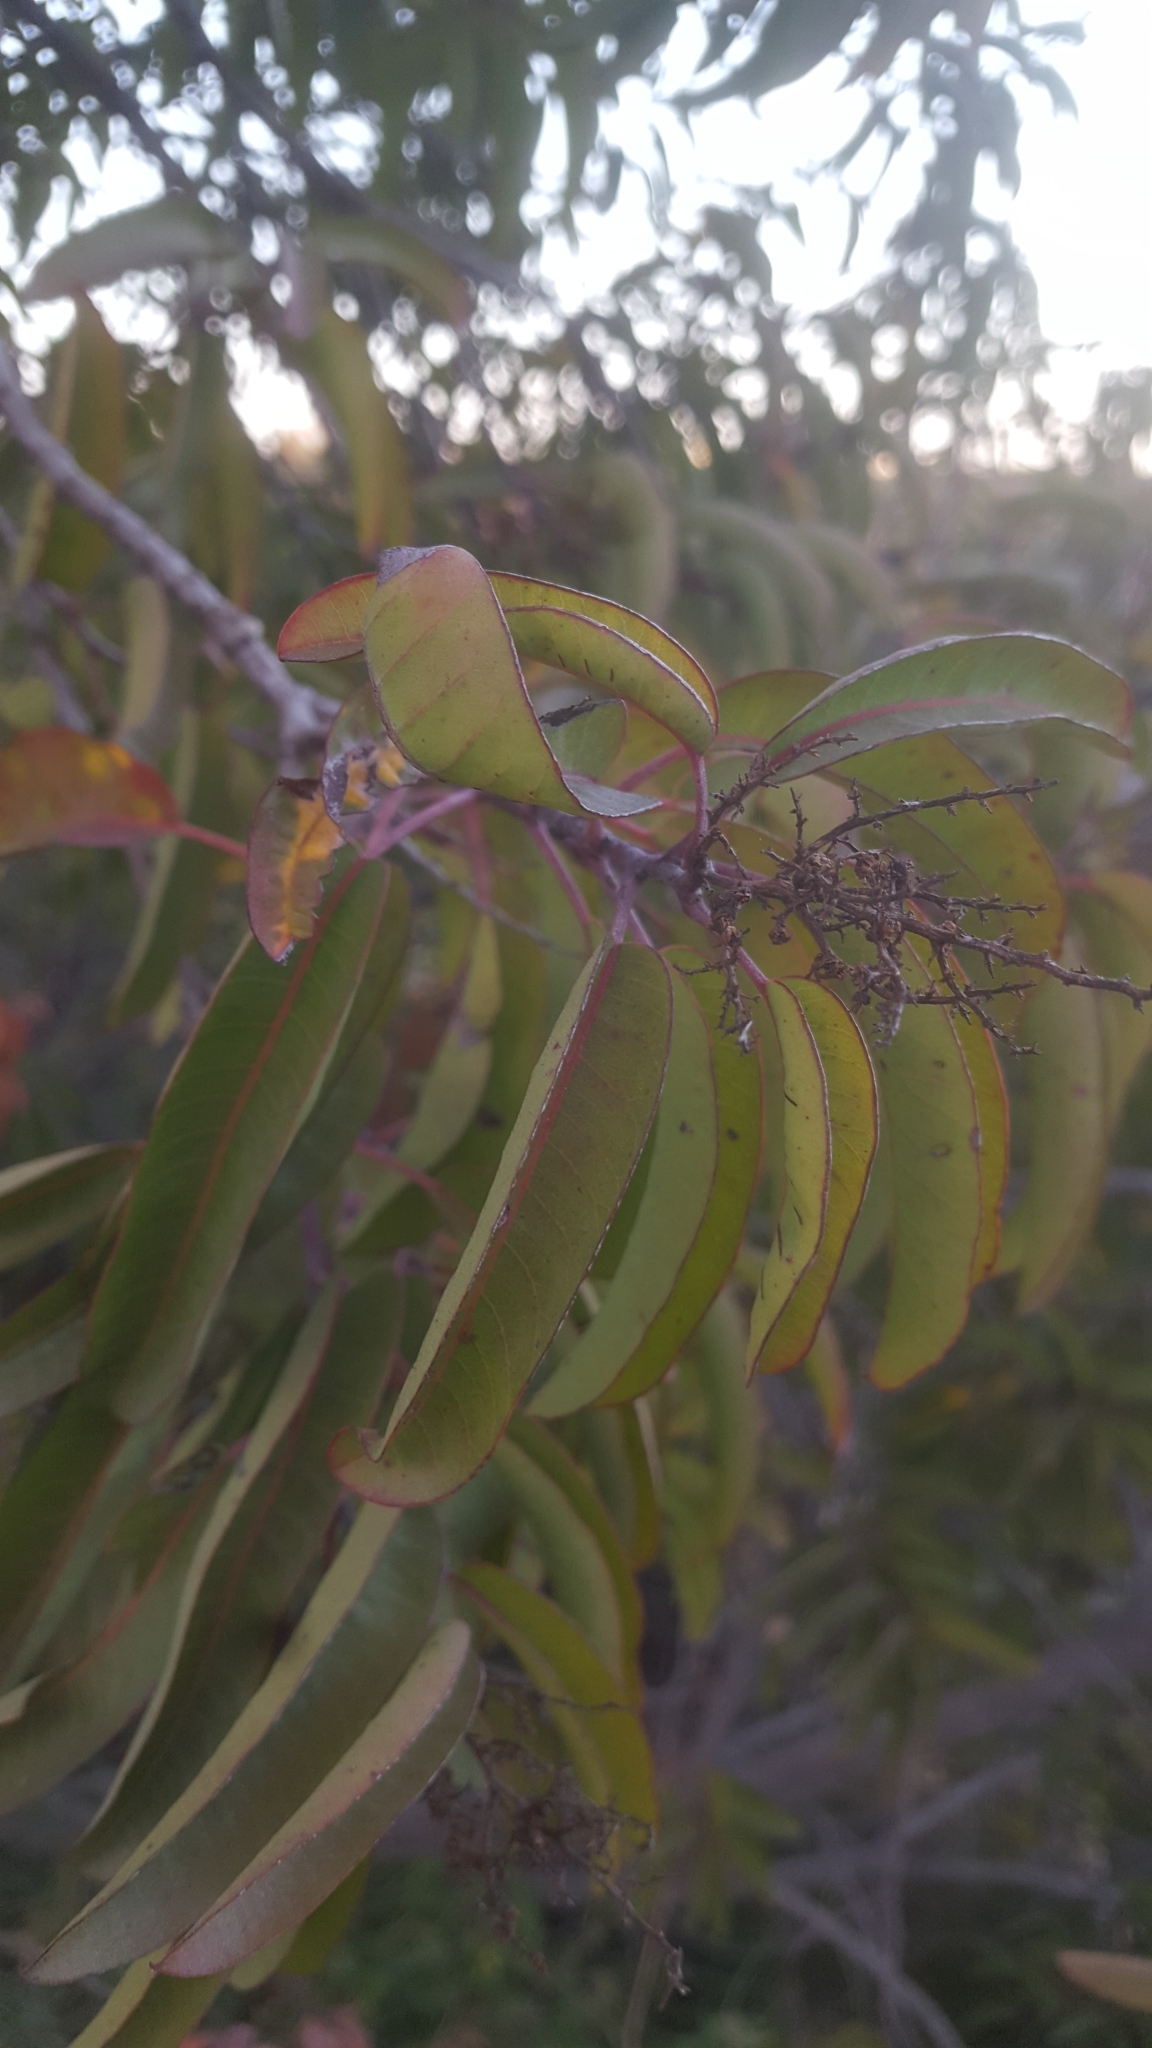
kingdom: Plantae
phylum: Tracheophyta
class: Magnoliopsida
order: Sapindales
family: Anacardiaceae
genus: Malosma
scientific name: Malosma laurina
